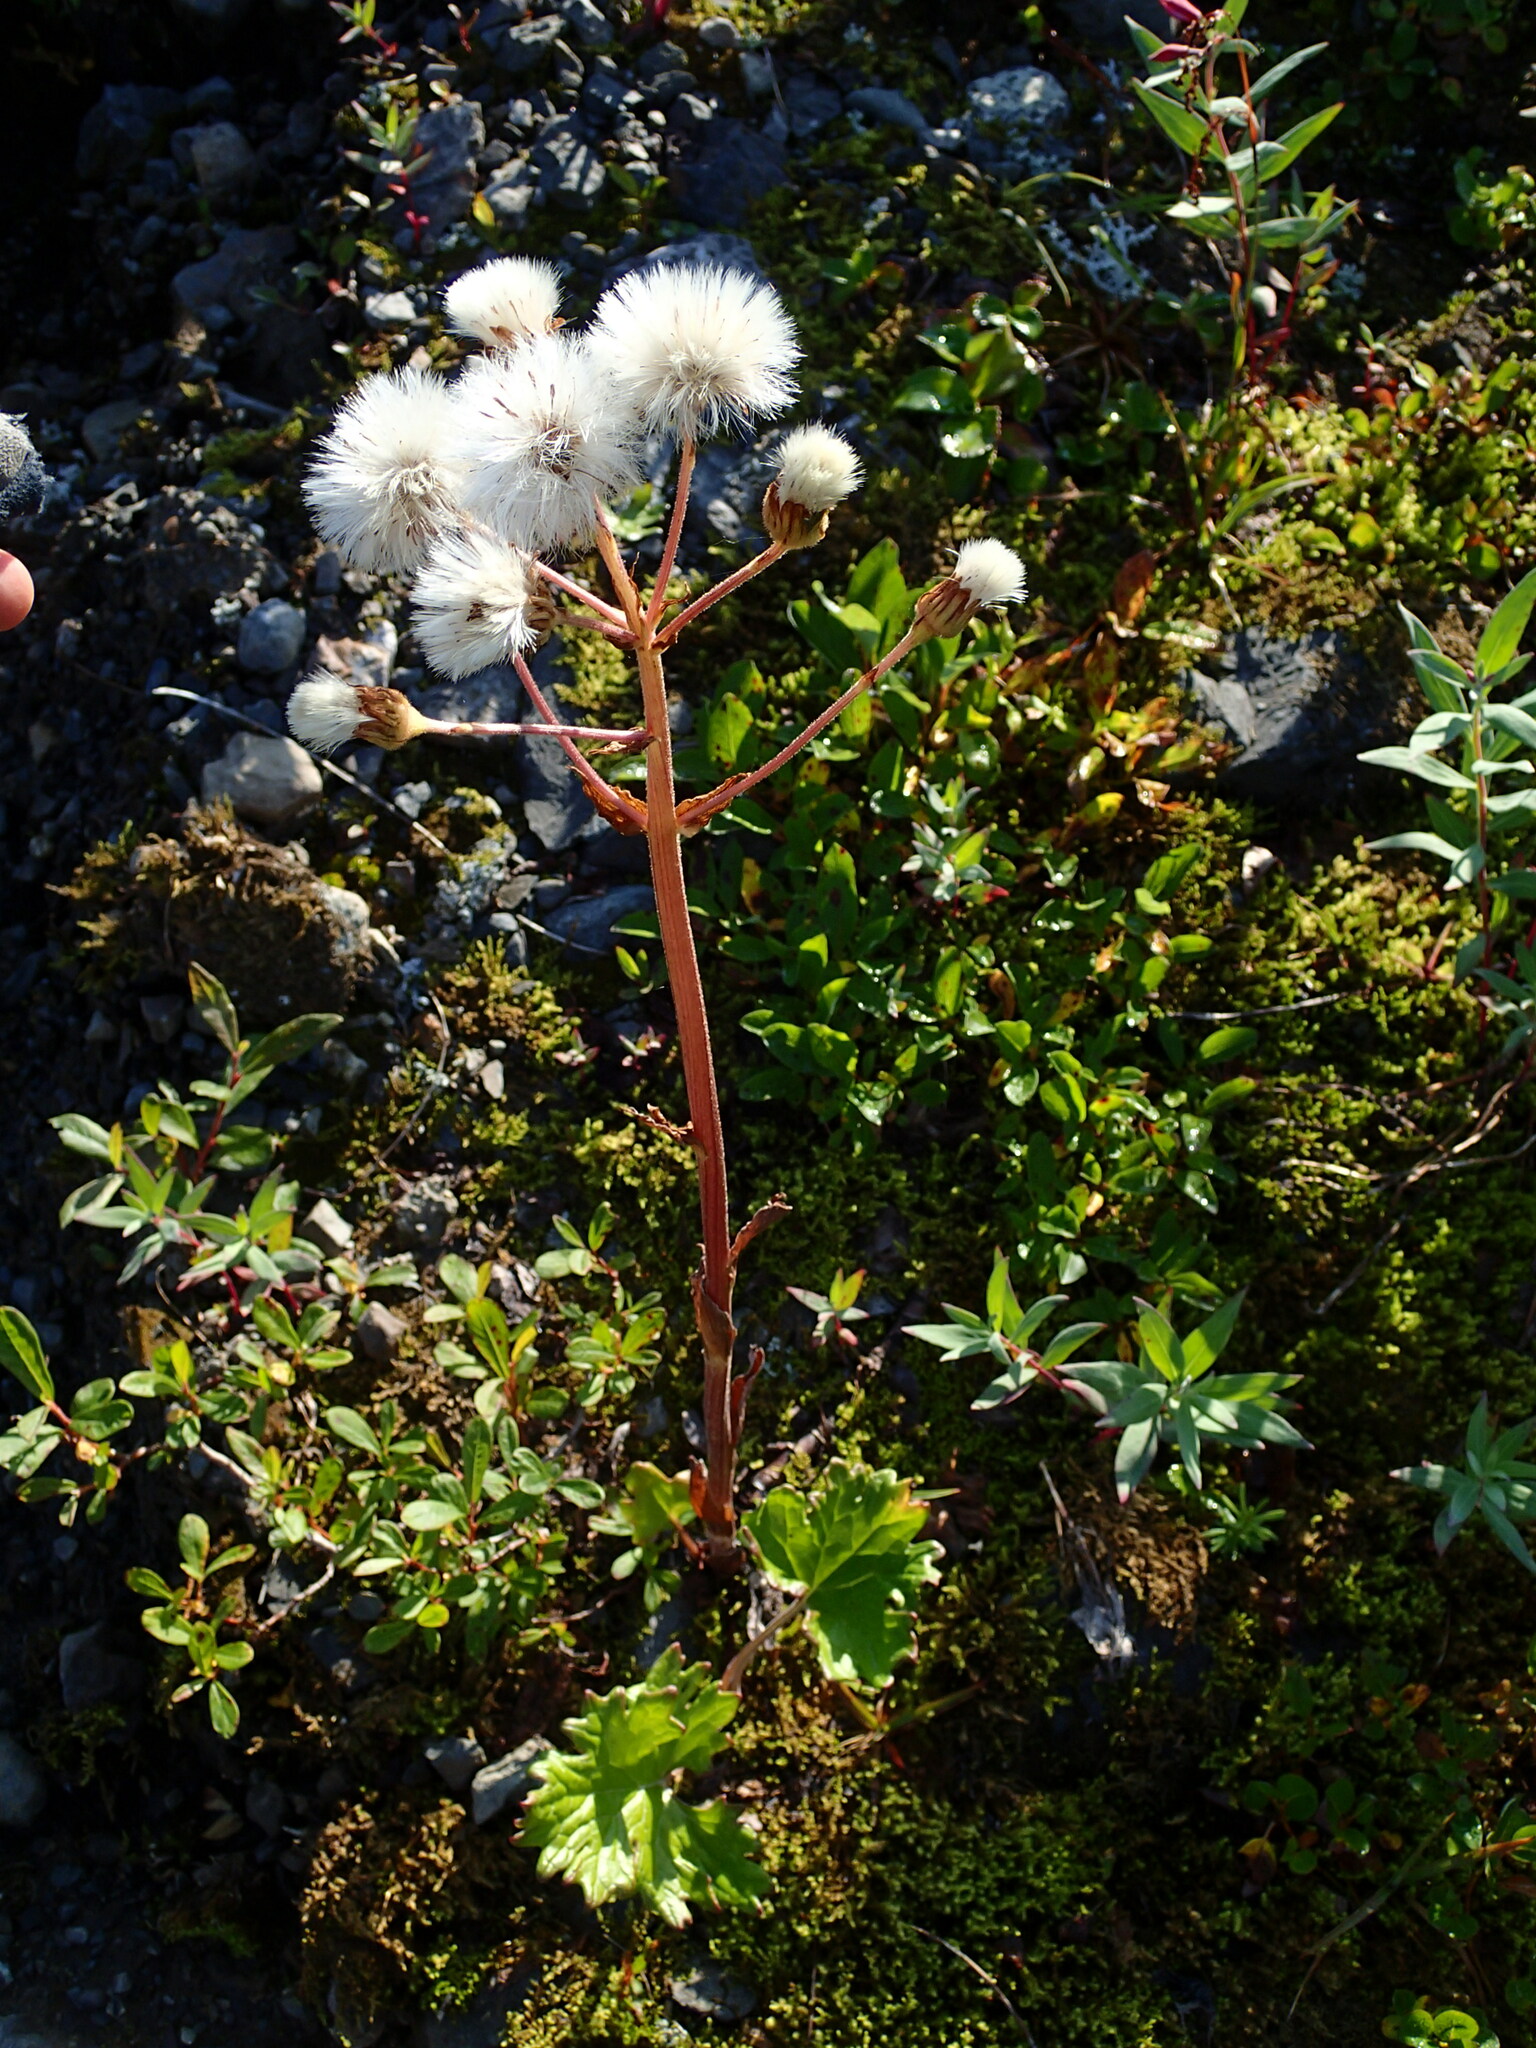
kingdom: Plantae
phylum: Tracheophyta
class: Magnoliopsida
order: Asterales
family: Asteraceae
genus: Petasites
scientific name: Petasites frigidus
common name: Arctic butterbur
